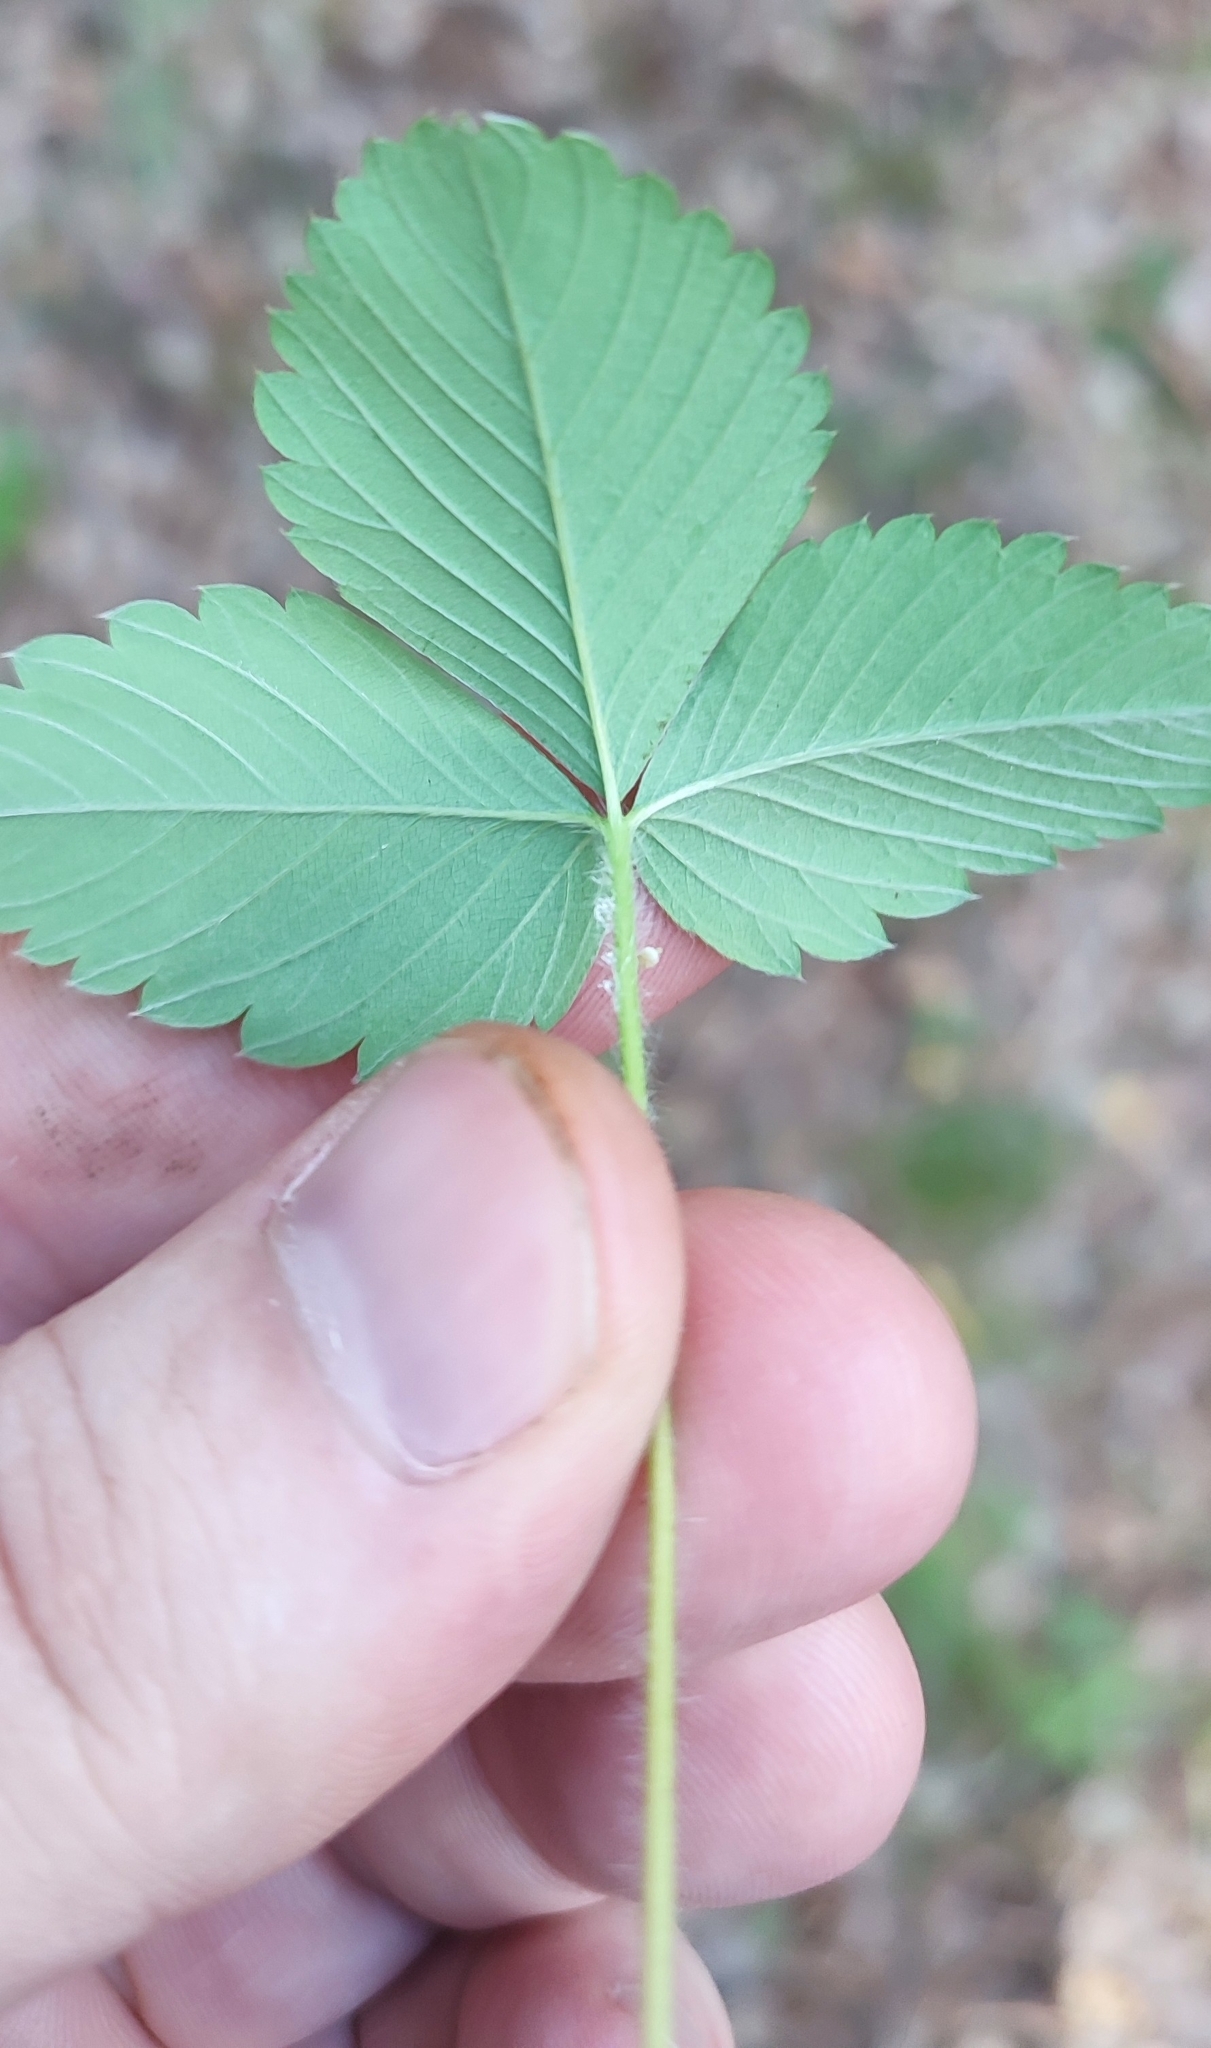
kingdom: Plantae
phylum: Tracheophyta
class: Magnoliopsida
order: Rosales
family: Rosaceae
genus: Fragaria
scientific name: Fragaria vesca
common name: Wild strawberry
